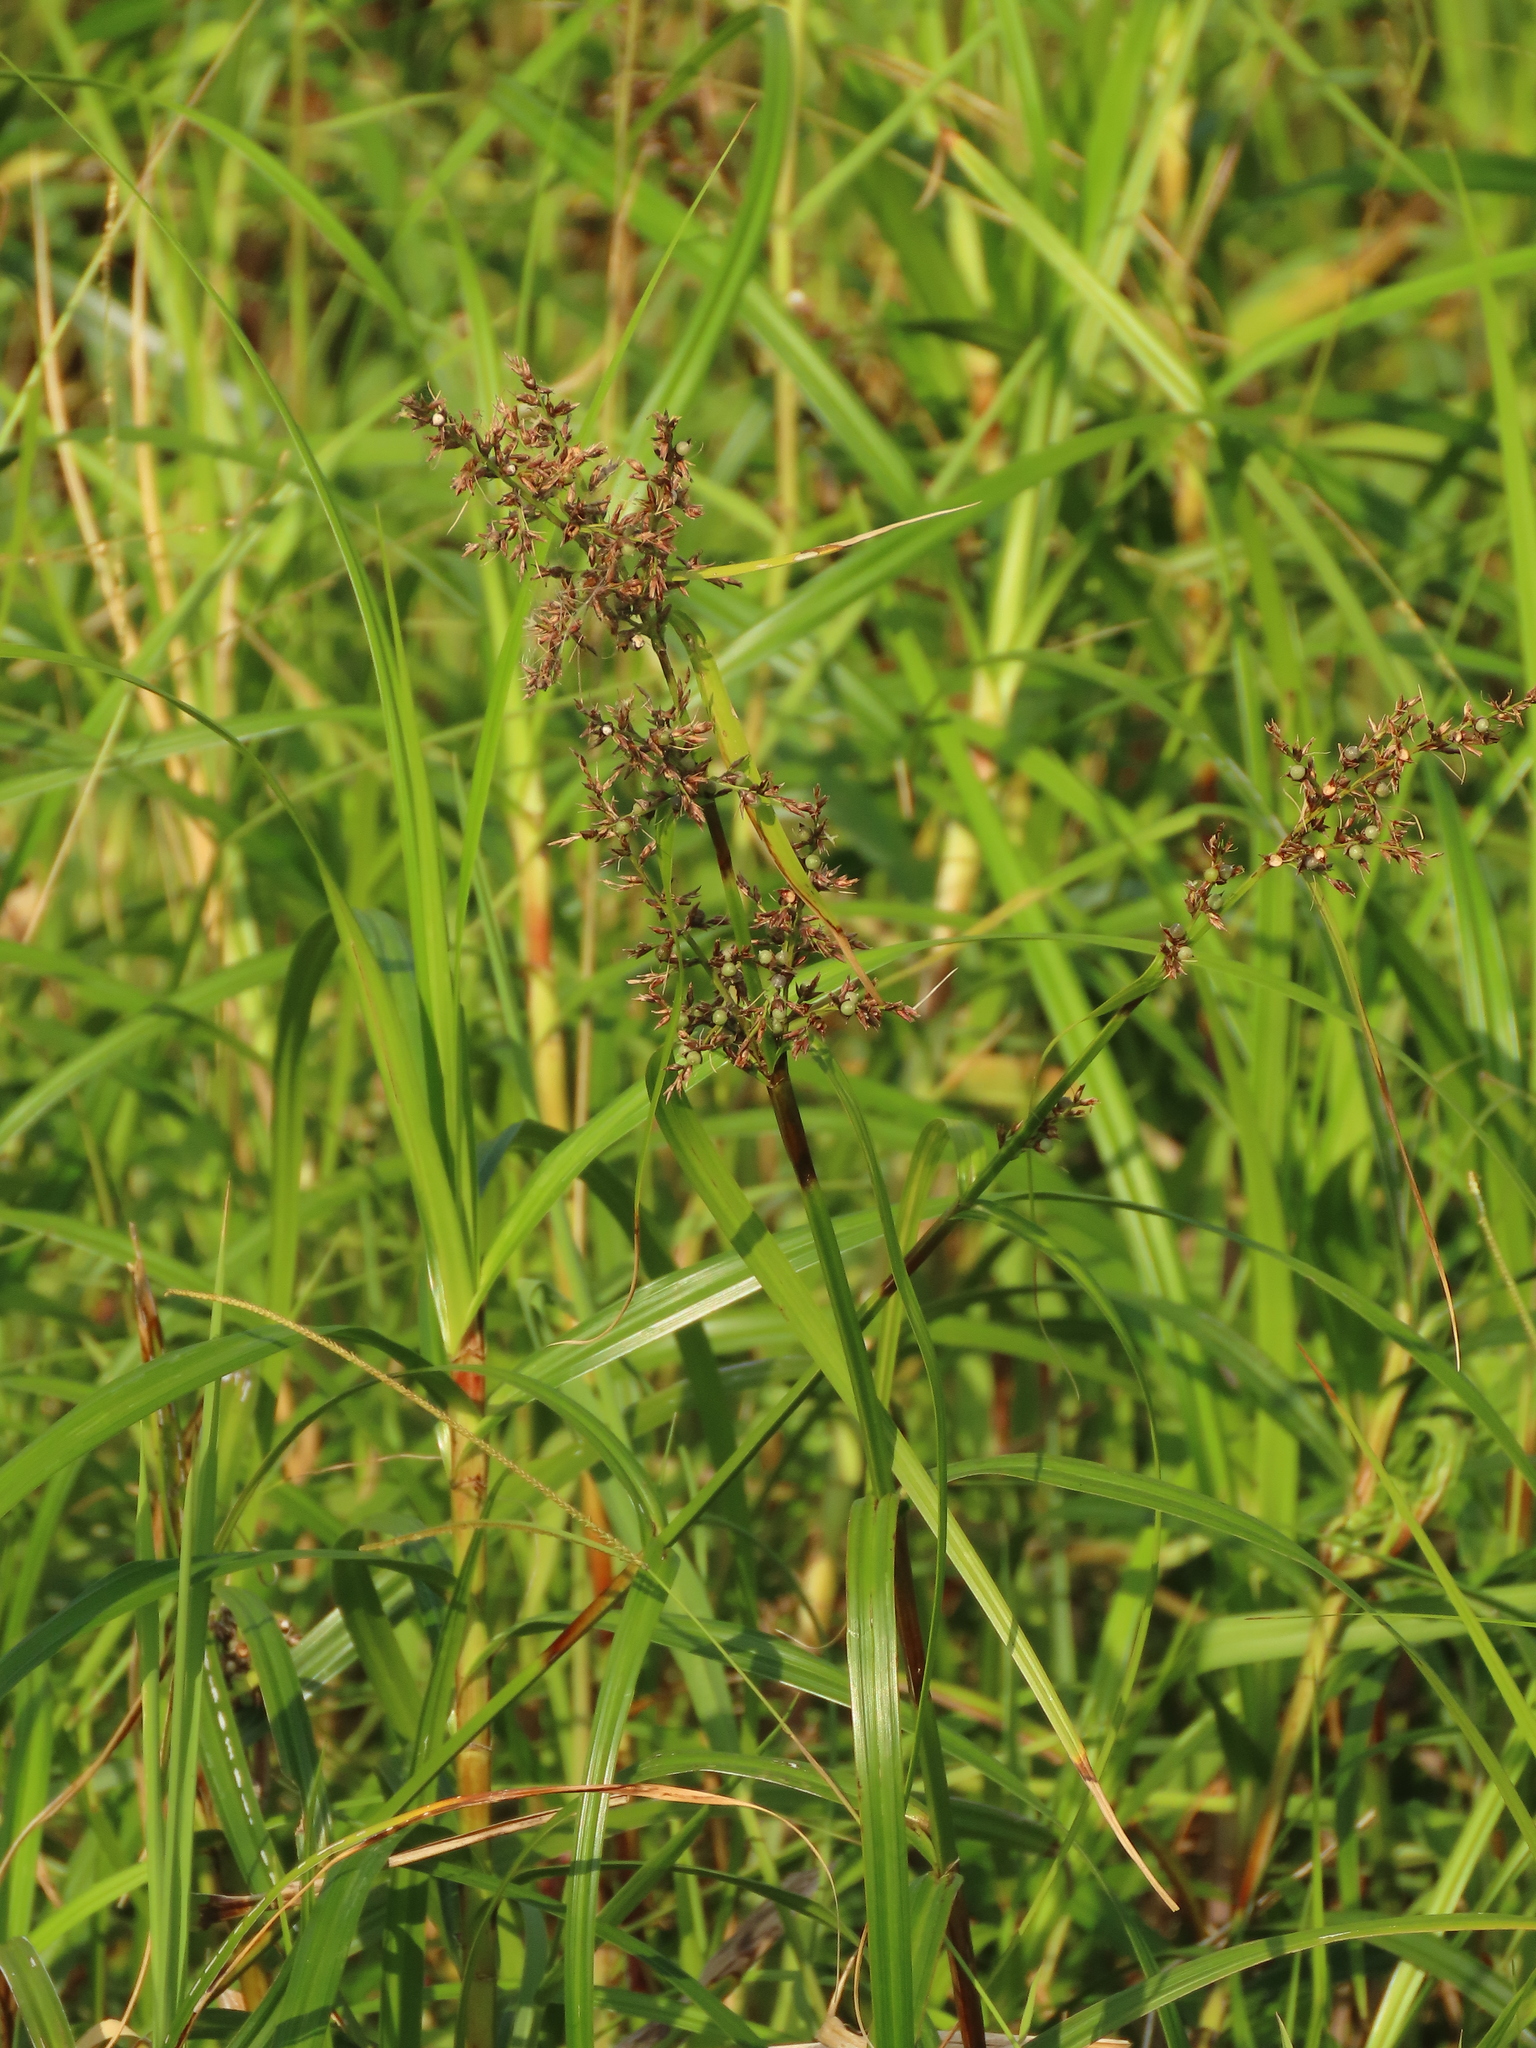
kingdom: Plantae
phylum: Tracheophyta
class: Liliopsida
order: Poales
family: Cyperaceae
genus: Scleria
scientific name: Scleria scrobiculata
